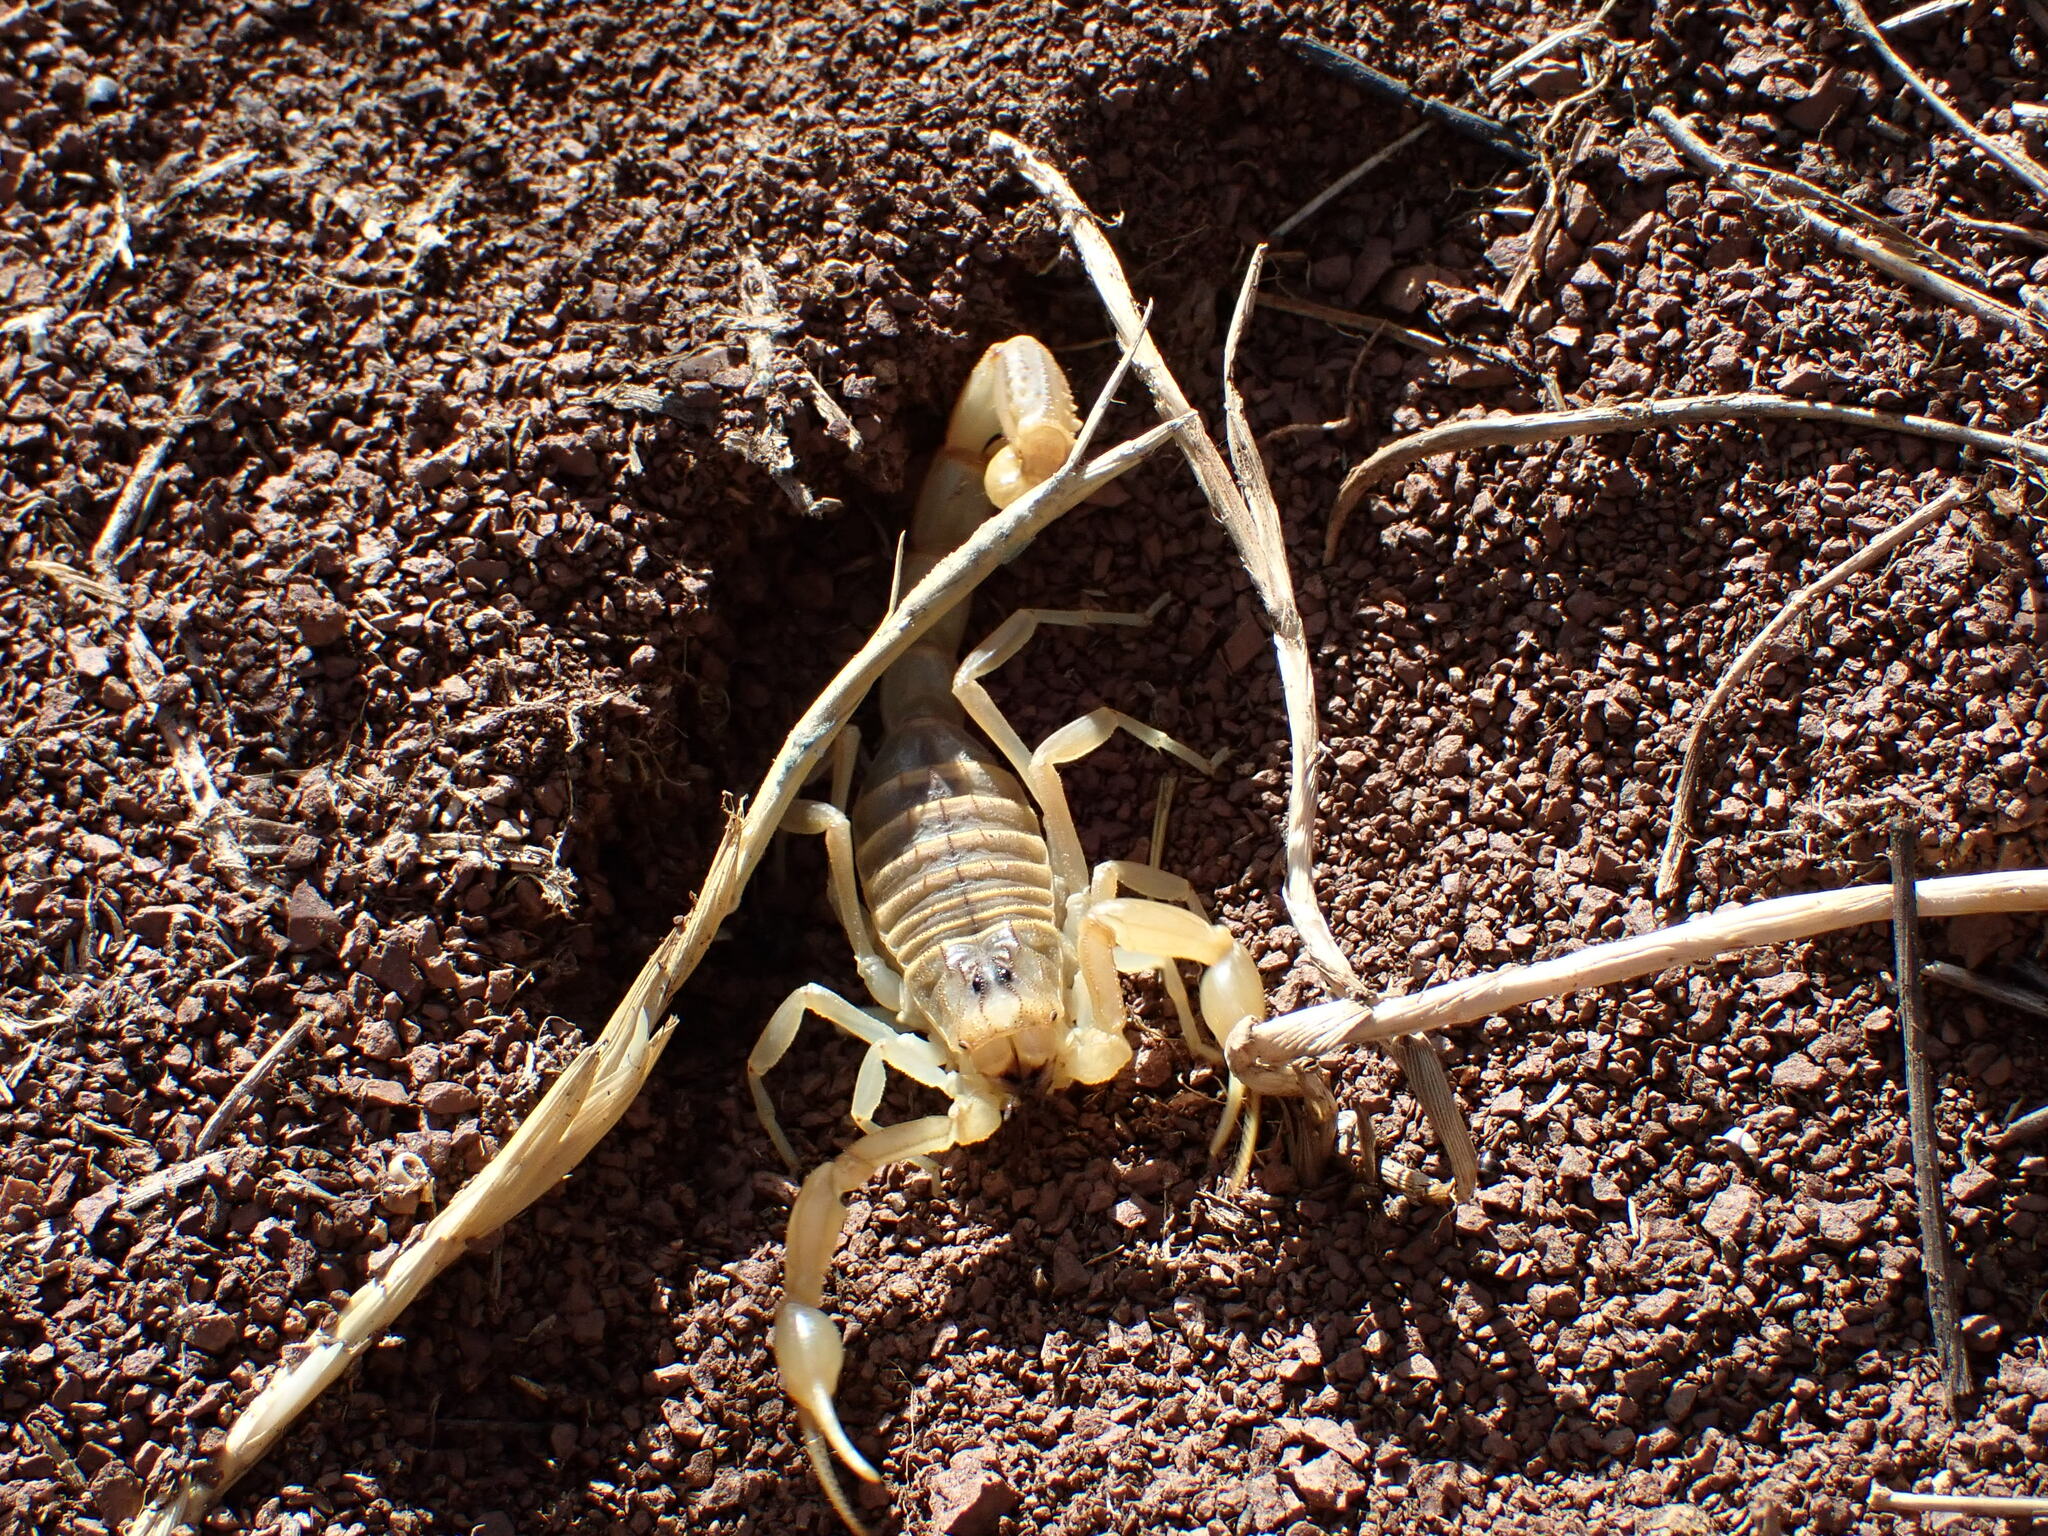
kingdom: Animalia
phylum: Arthropoda
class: Arachnida
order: Scorpiones
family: Buthidae
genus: Buthus
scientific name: Buthus occitanus
